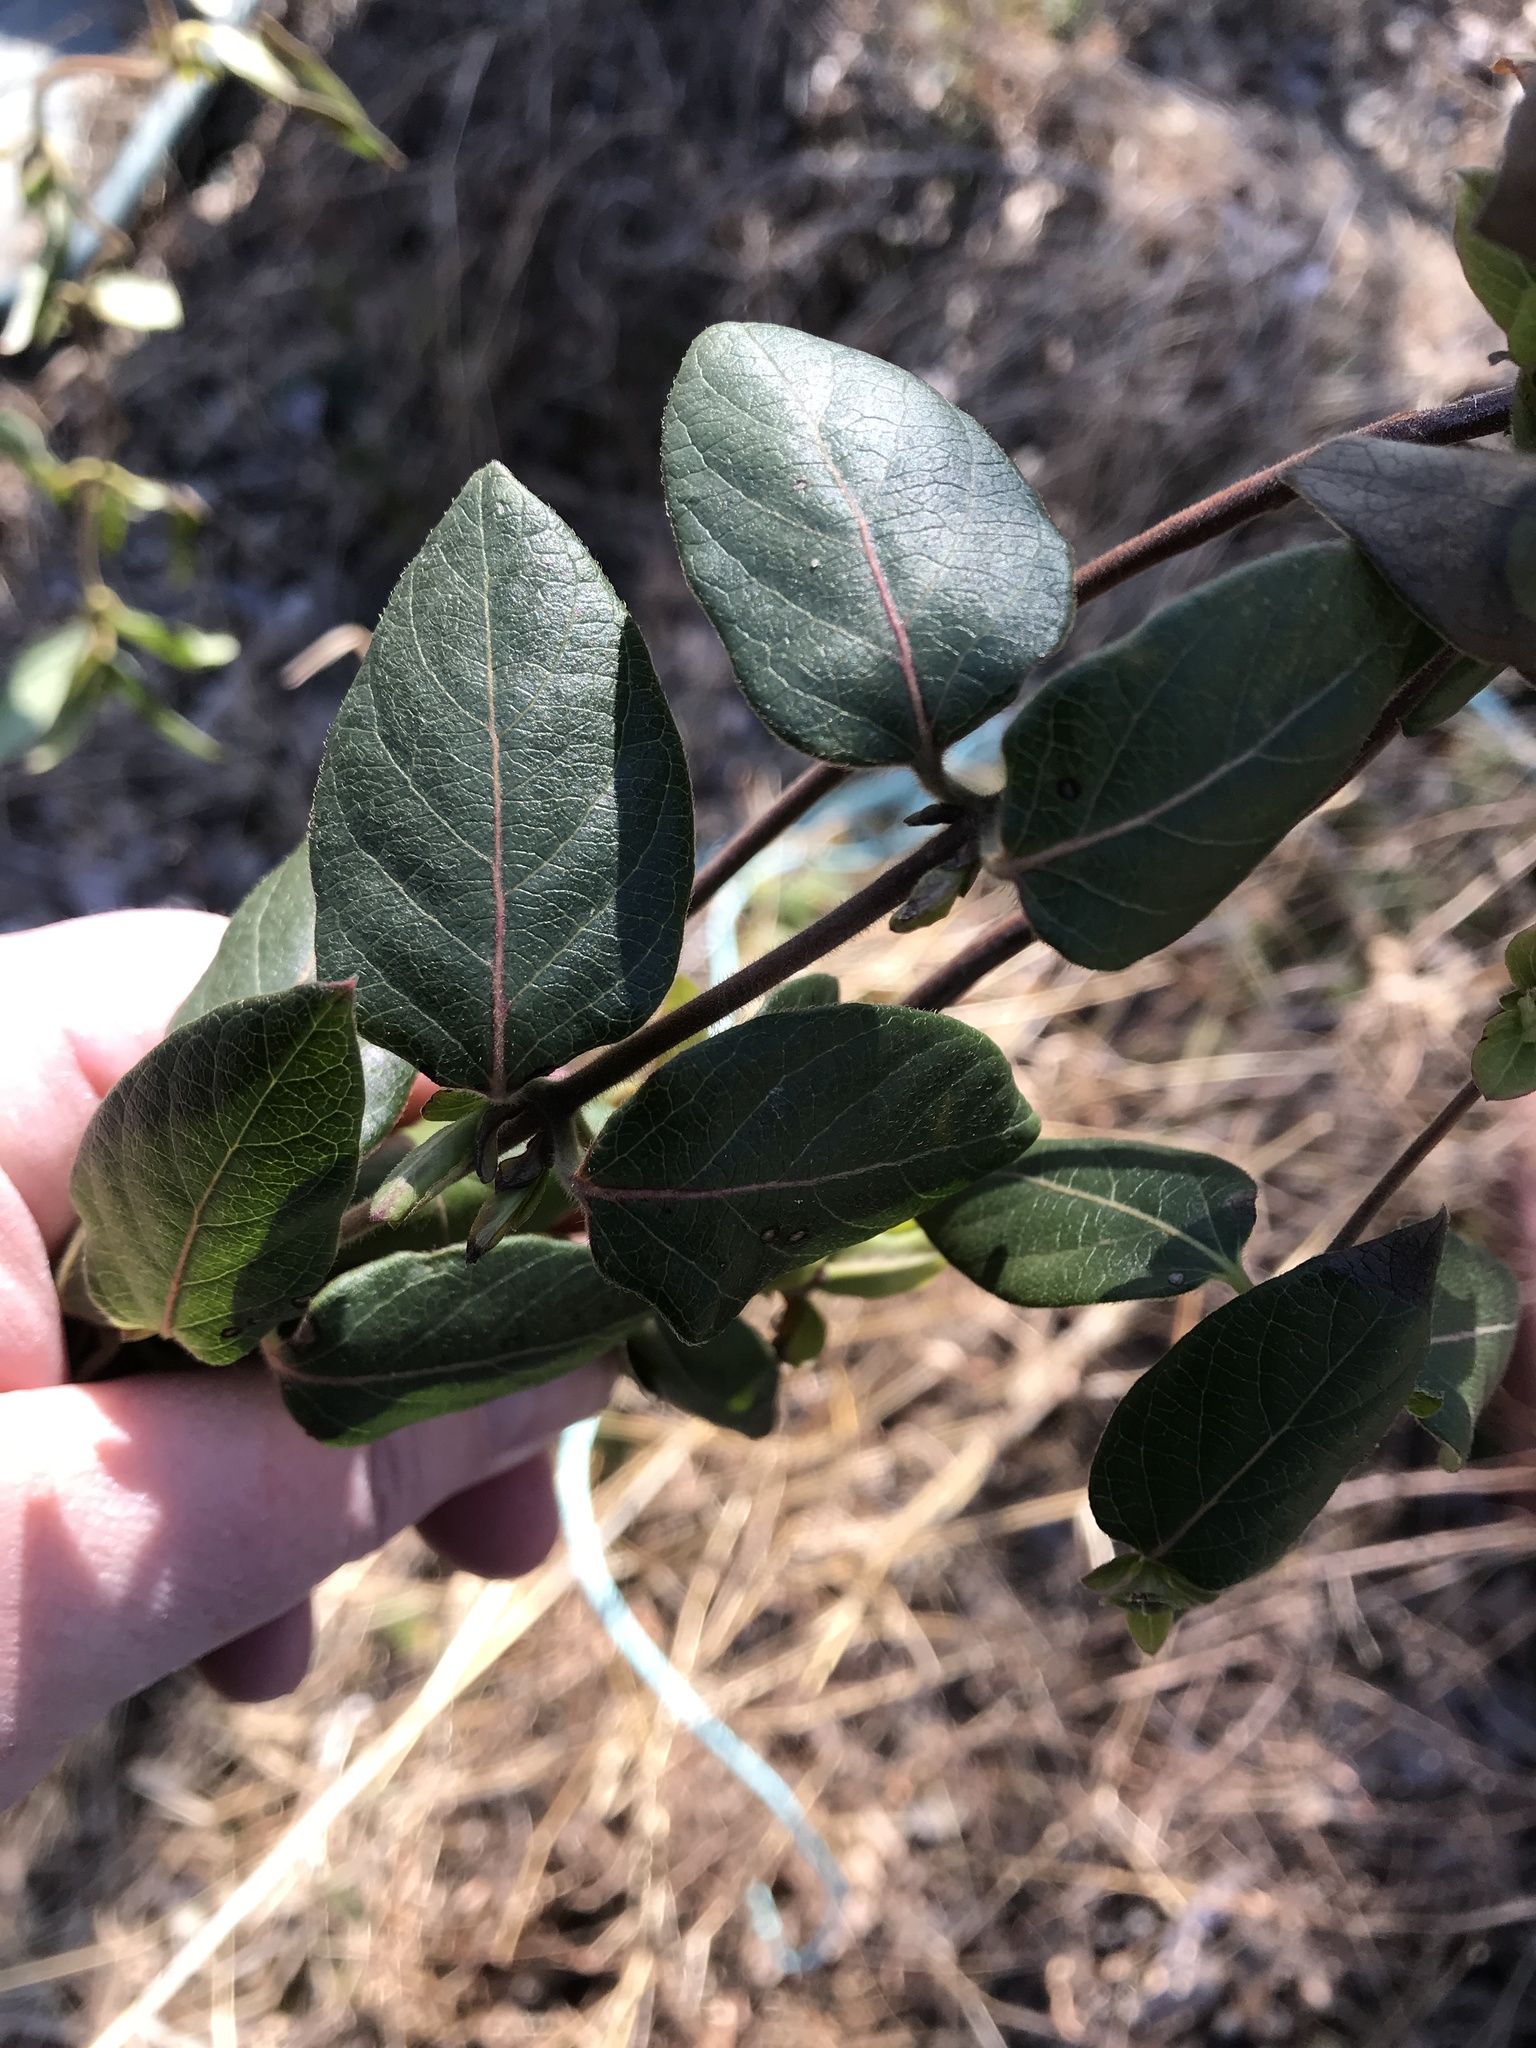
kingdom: Plantae
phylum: Tracheophyta
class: Magnoliopsida
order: Dipsacales
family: Caprifoliaceae
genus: Lonicera
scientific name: Lonicera japonica
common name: Japanese honeysuckle
